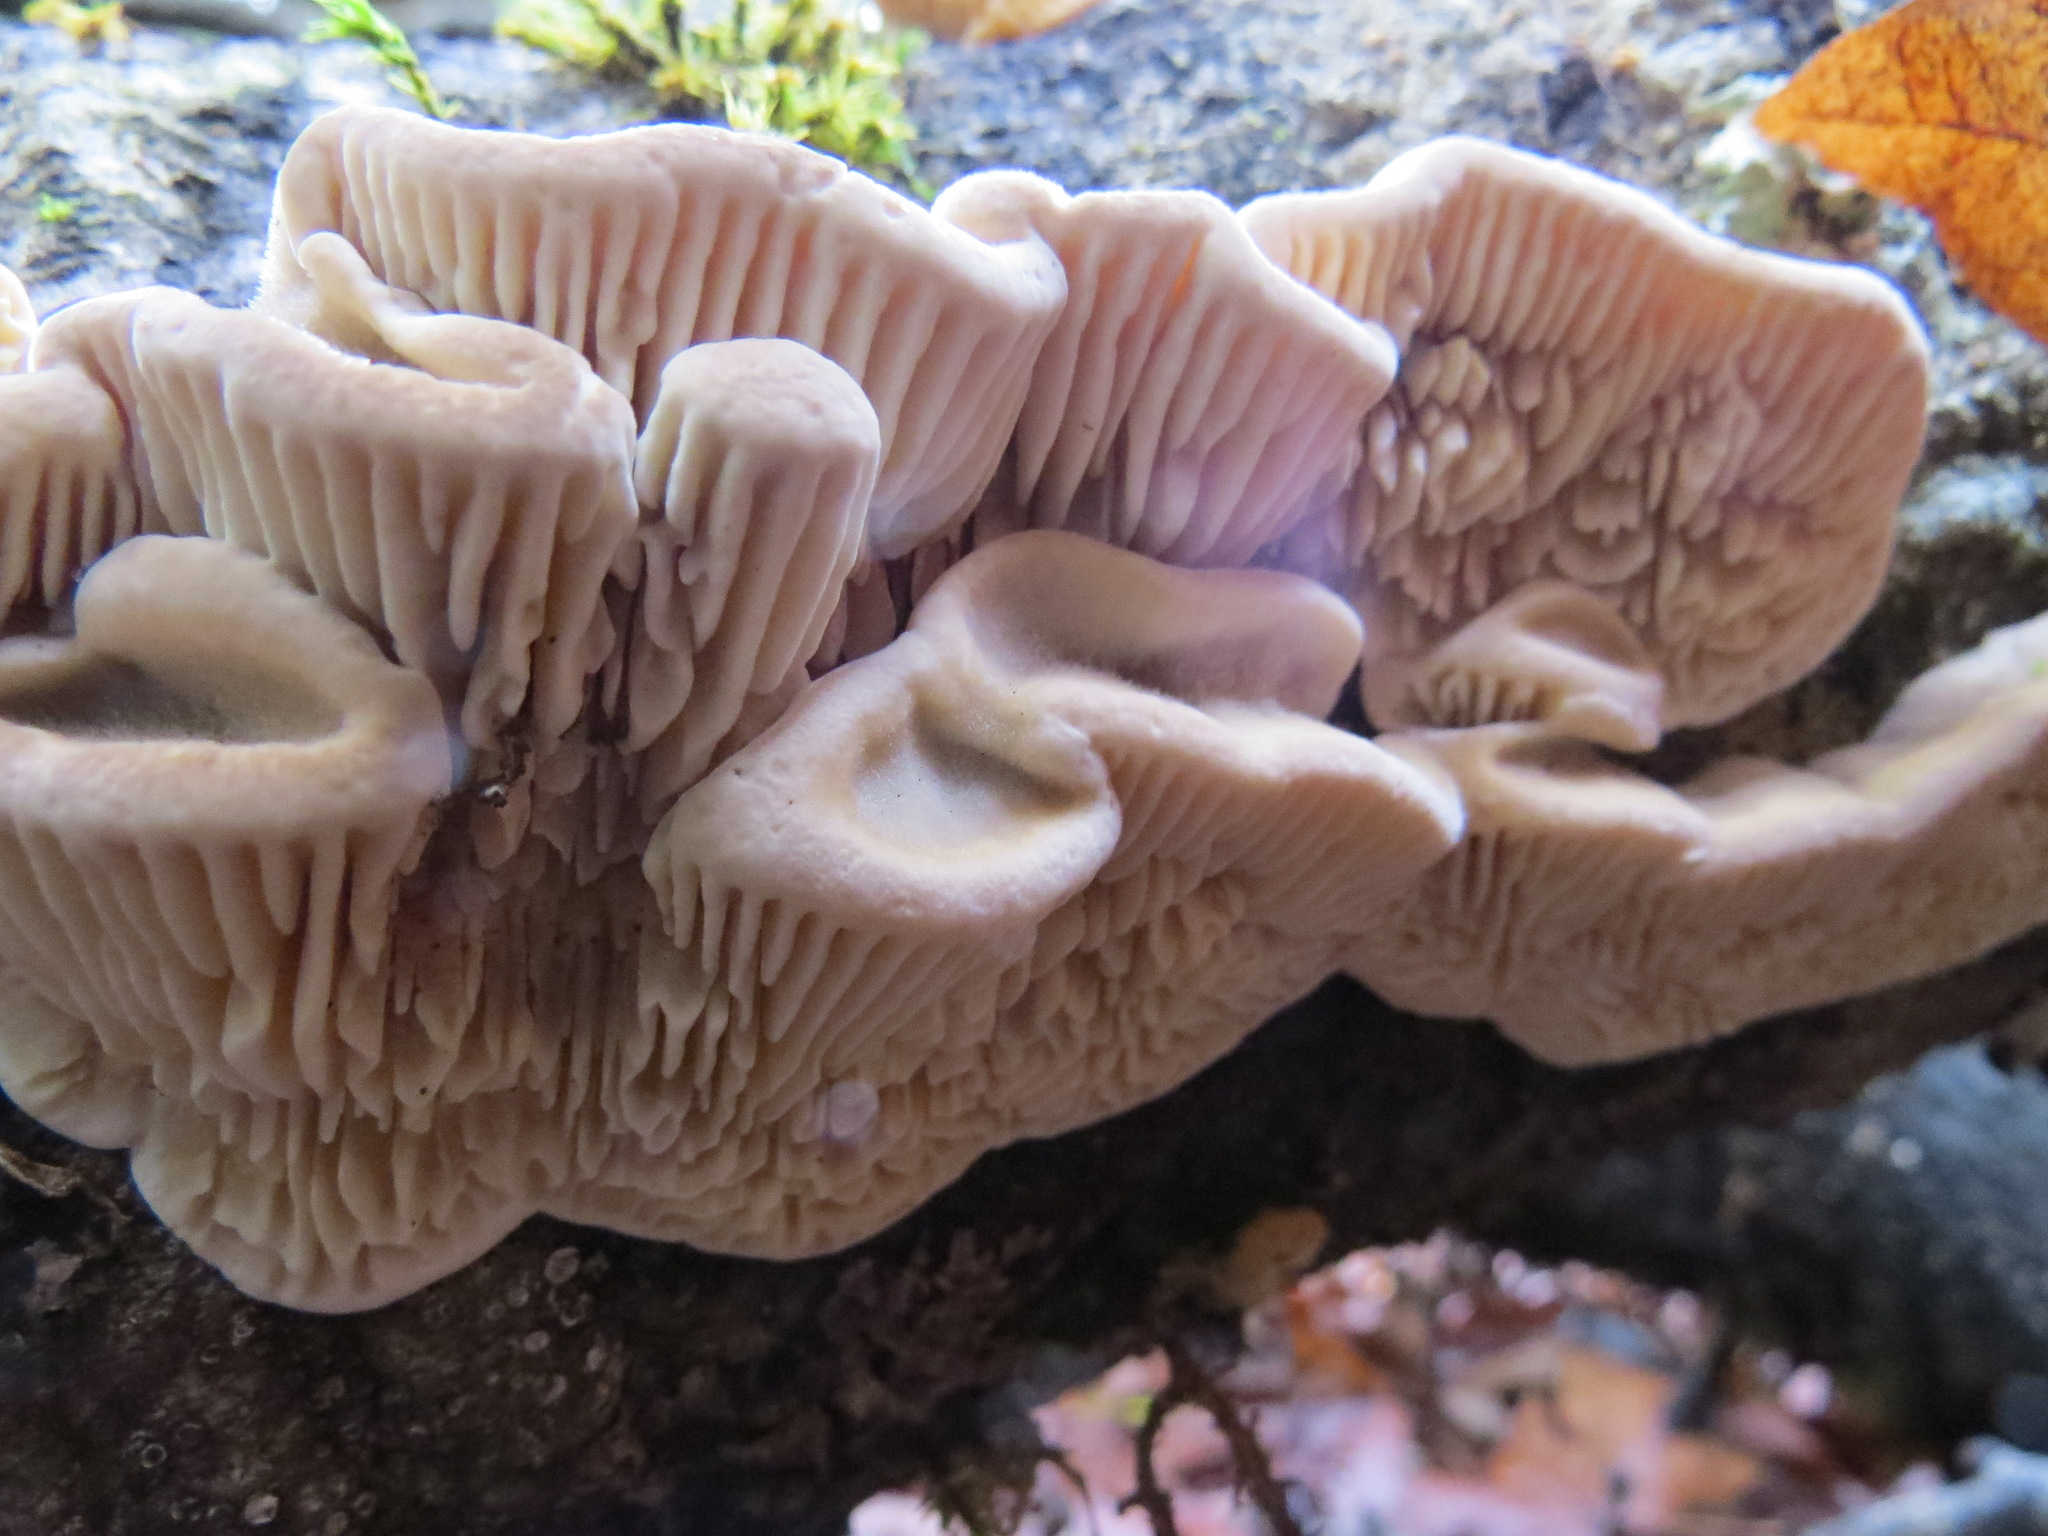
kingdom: Fungi
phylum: Basidiomycota
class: Agaricomycetes
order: Polyporales
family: Polyporaceae
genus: Lenzites
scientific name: Lenzites betulinus
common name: Birch mazegill
